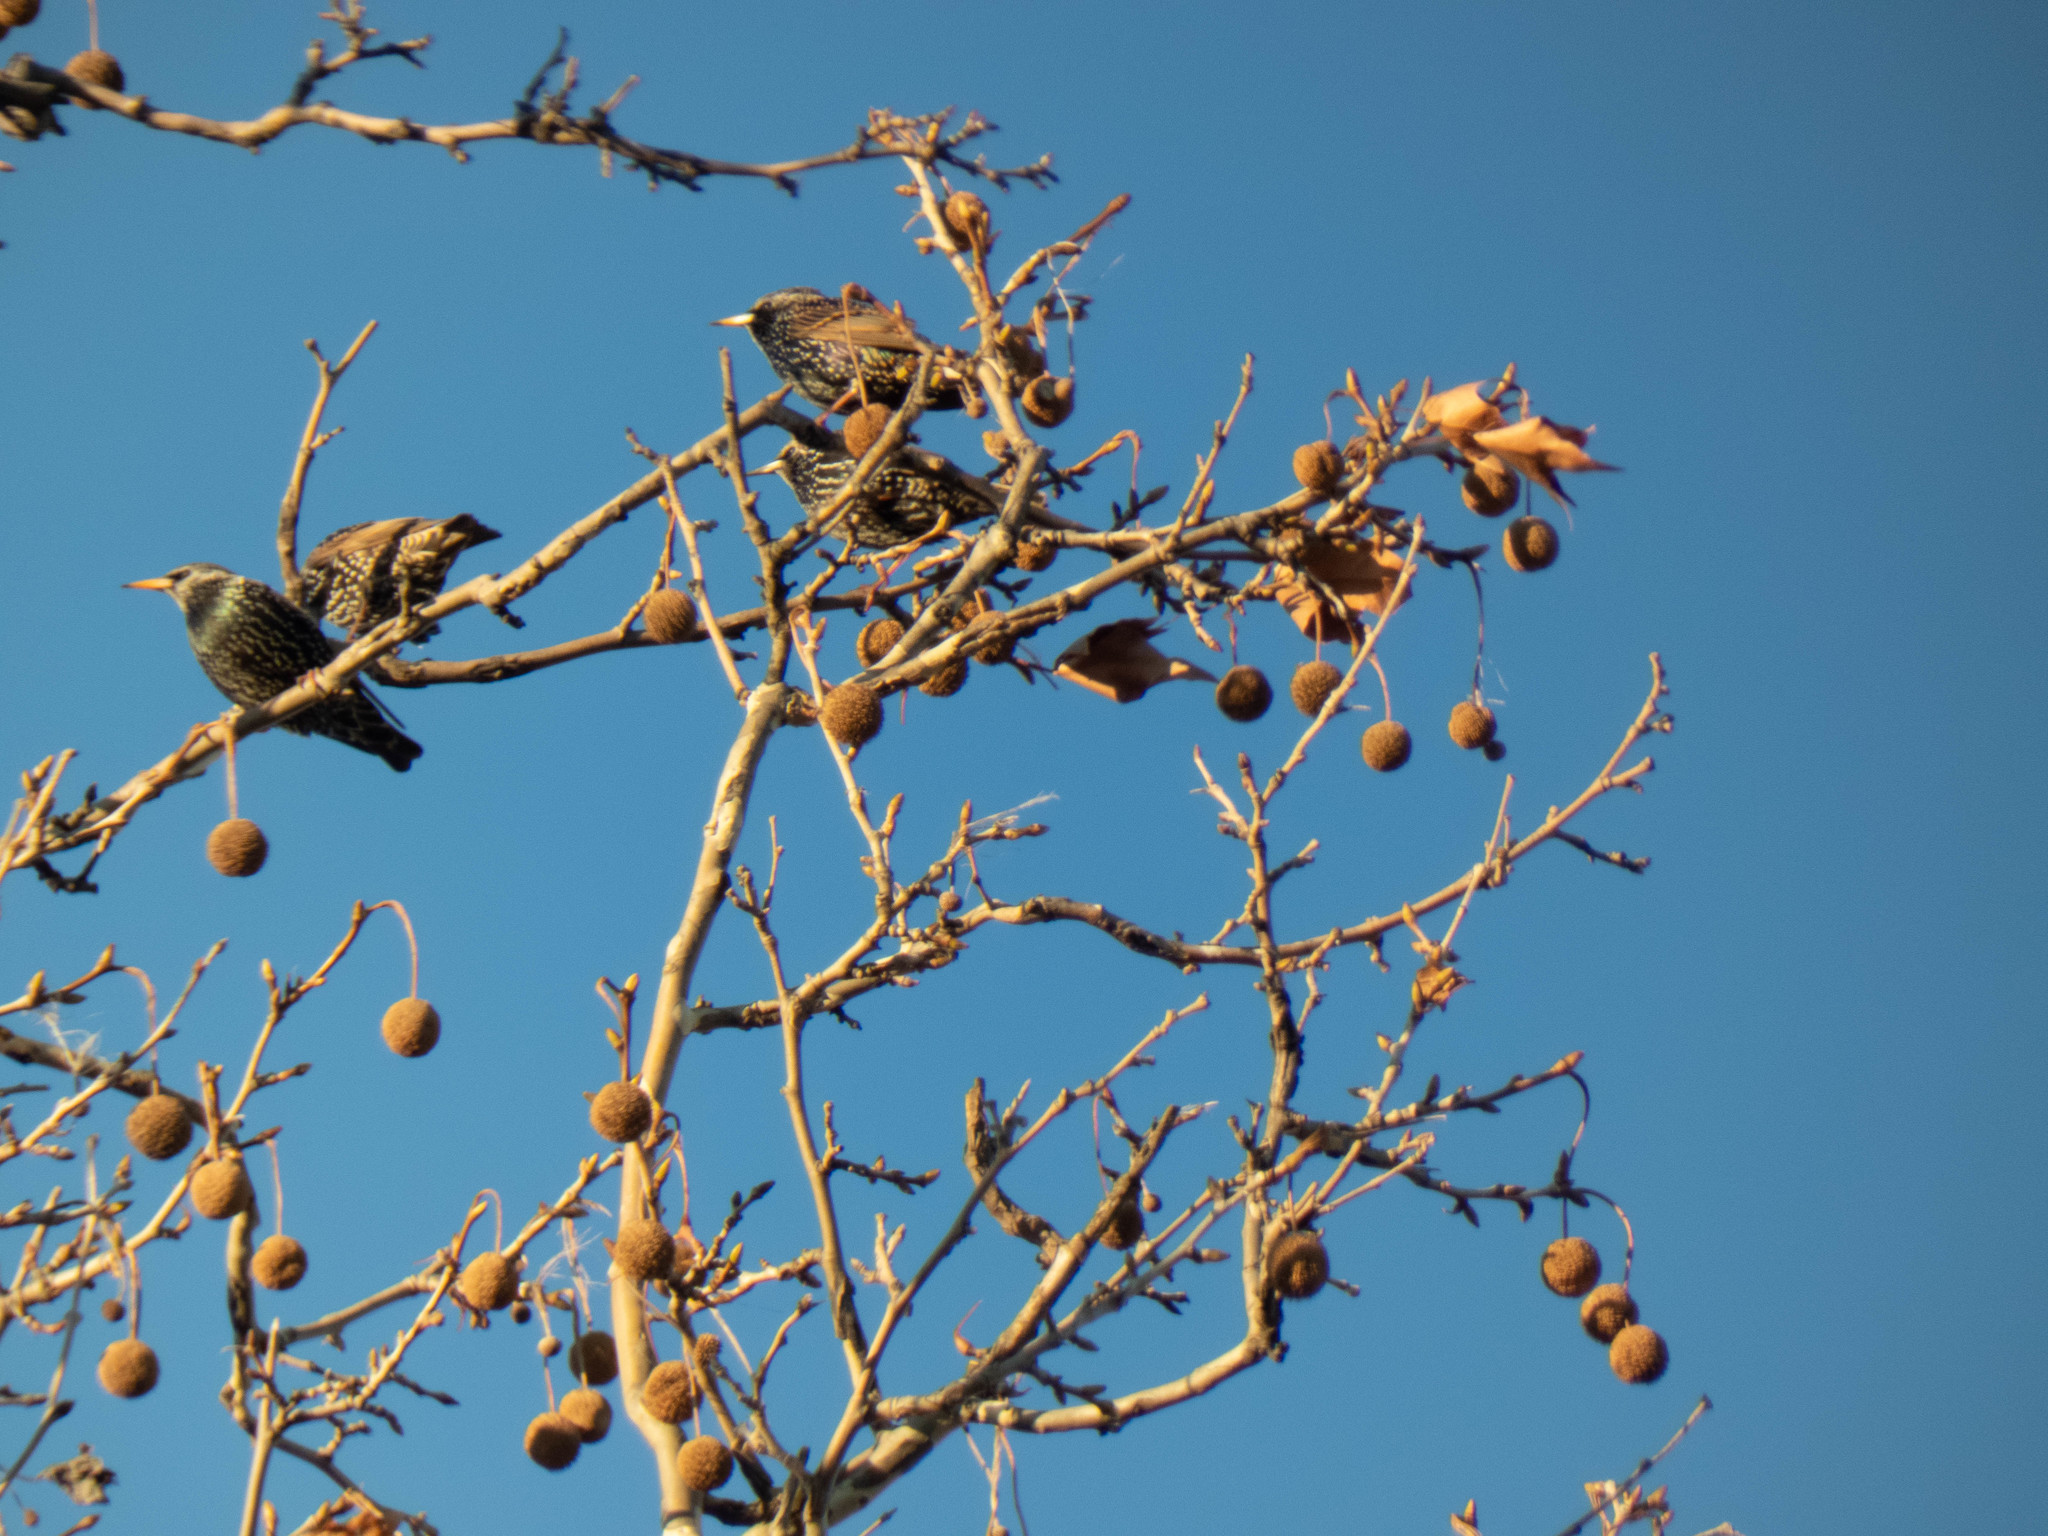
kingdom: Animalia
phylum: Chordata
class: Aves
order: Passeriformes
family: Sturnidae
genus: Sturnus
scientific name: Sturnus vulgaris
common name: Common starling
